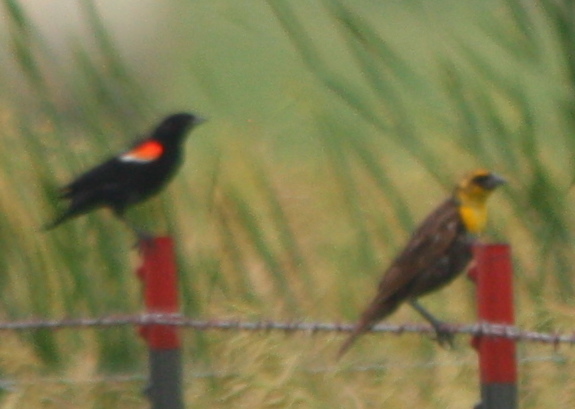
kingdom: Animalia
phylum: Chordata
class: Aves
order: Passeriformes
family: Icteridae
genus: Agelaius
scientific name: Agelaius phoeniceus
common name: Red-winged blackbird
